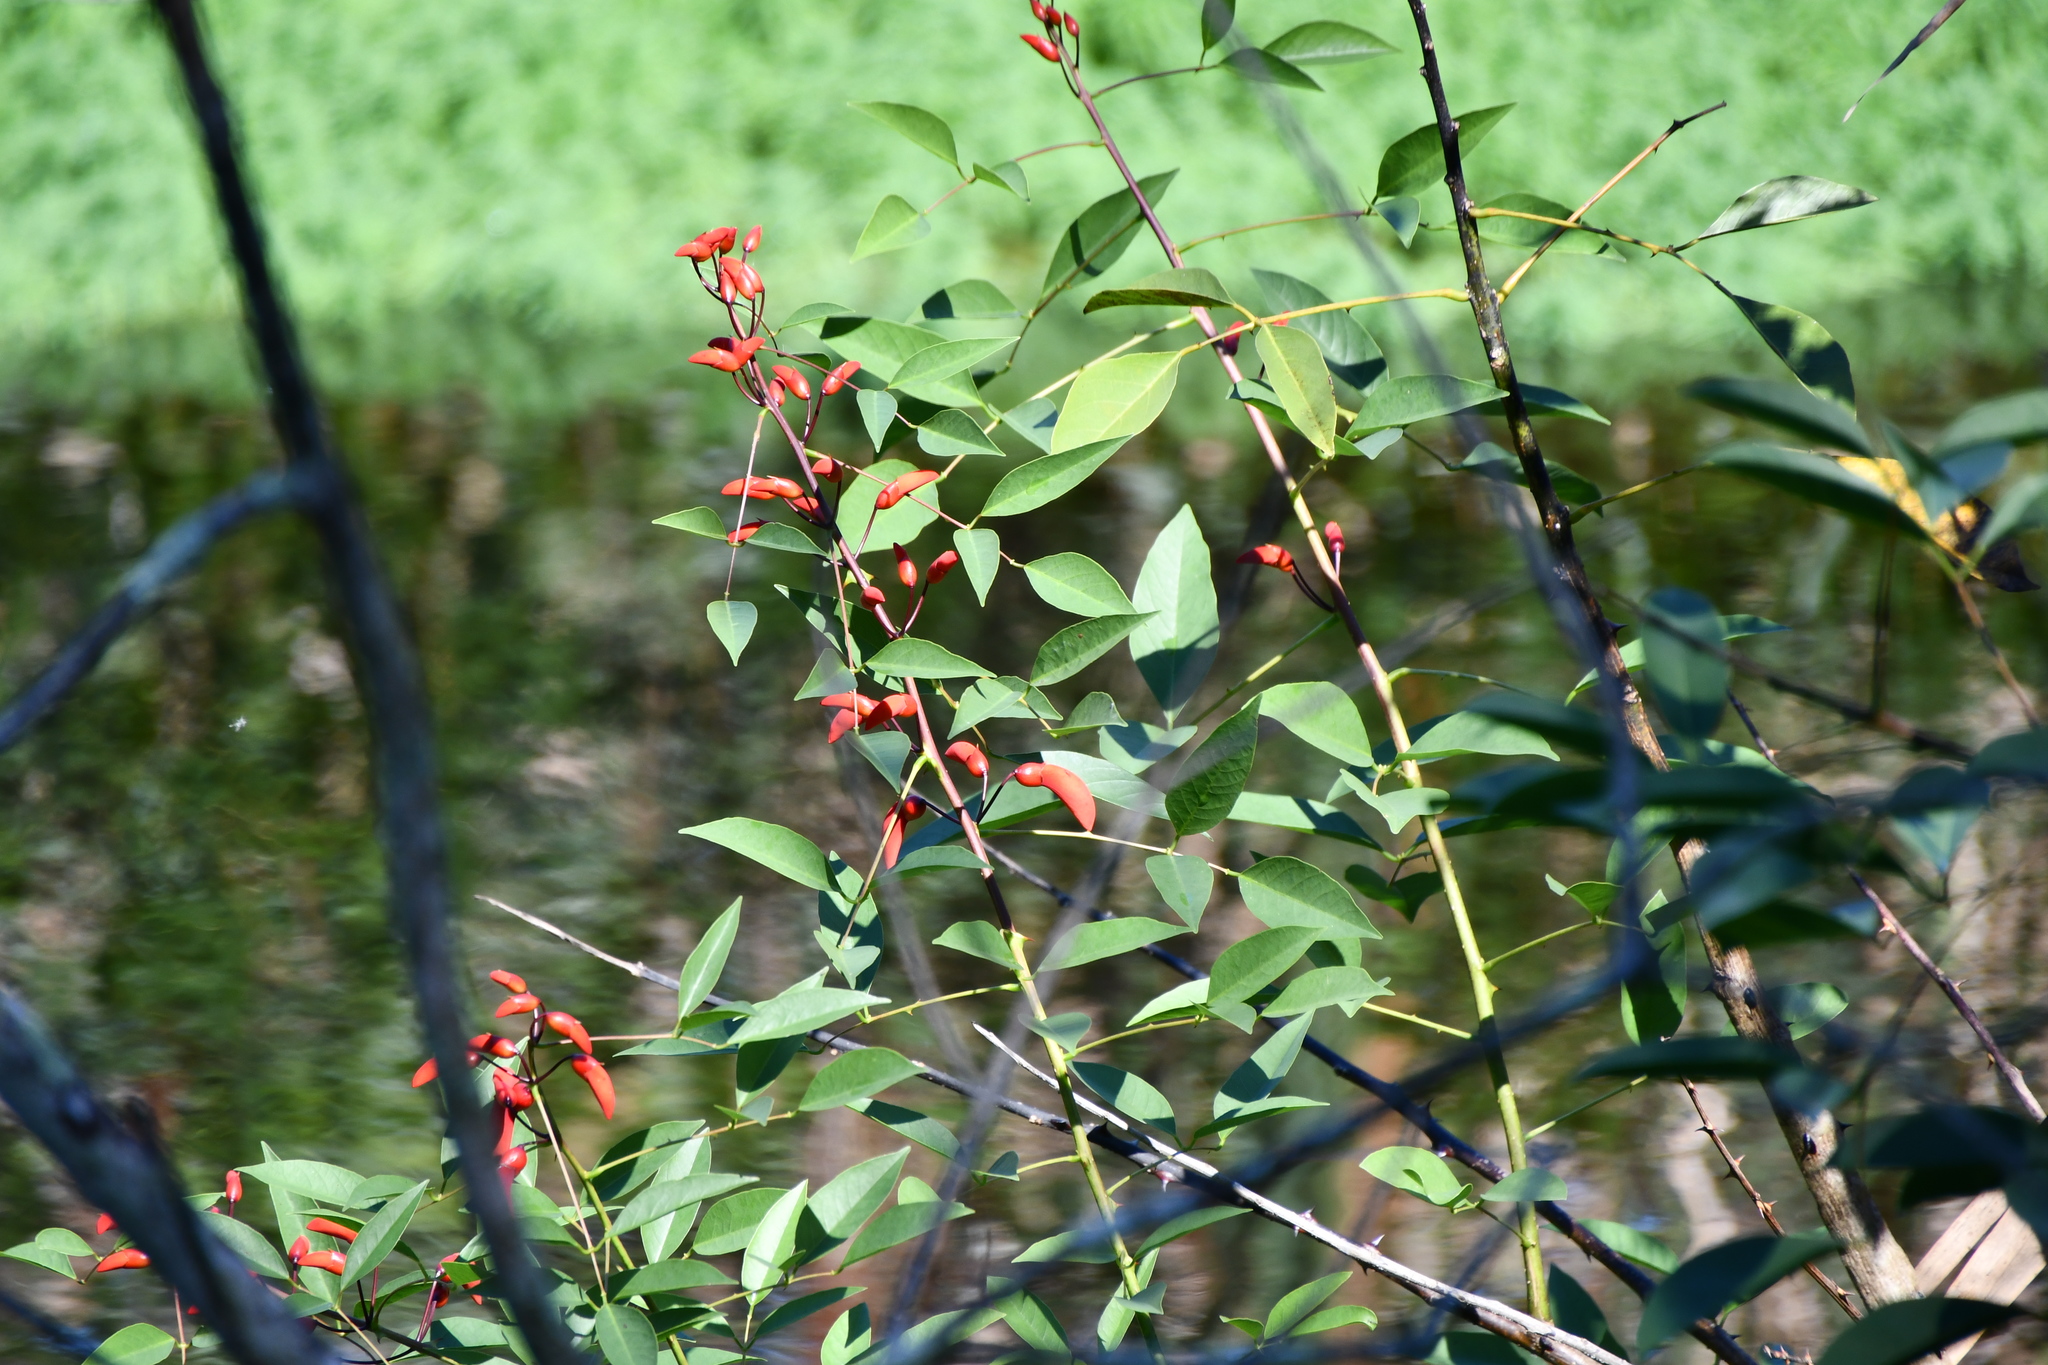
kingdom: Plantae
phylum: Tracheophyta
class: Magnoliopsida
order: Fabales
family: Fabaceae
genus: Erythrina
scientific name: Erythrina crista-galli
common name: Cockspur coral tree
